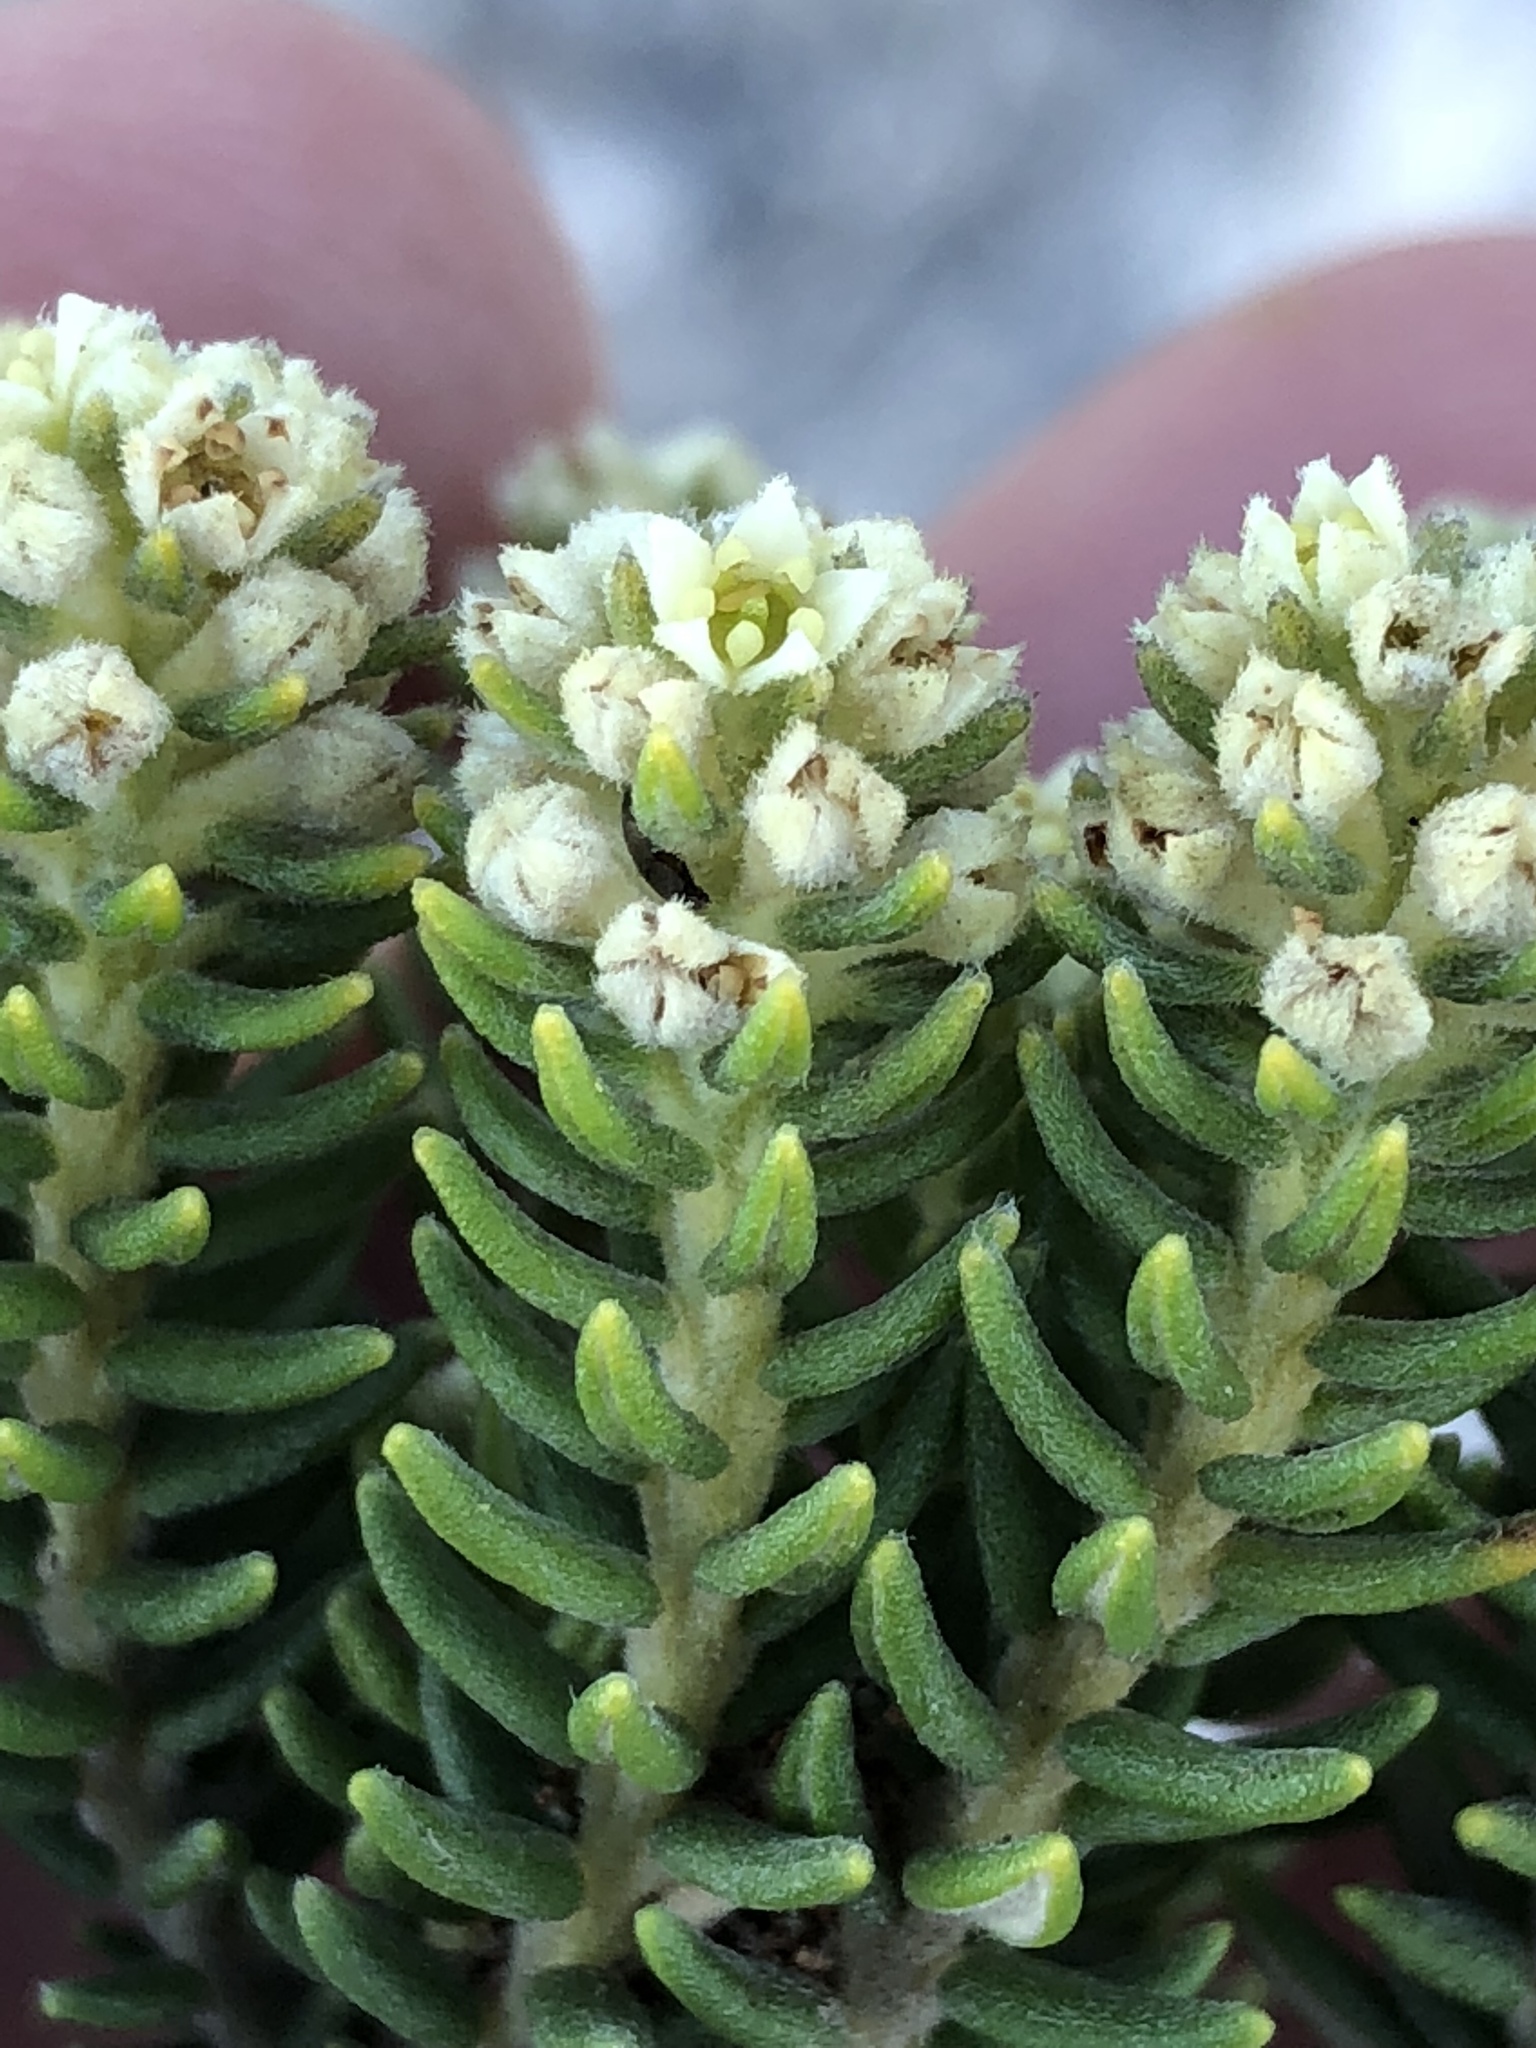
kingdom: Plantae
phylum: Tracheophyta
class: Magnoliopsida
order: Rosales
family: Rhamnaceae
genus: Phylica
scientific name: Phylica axillaris
